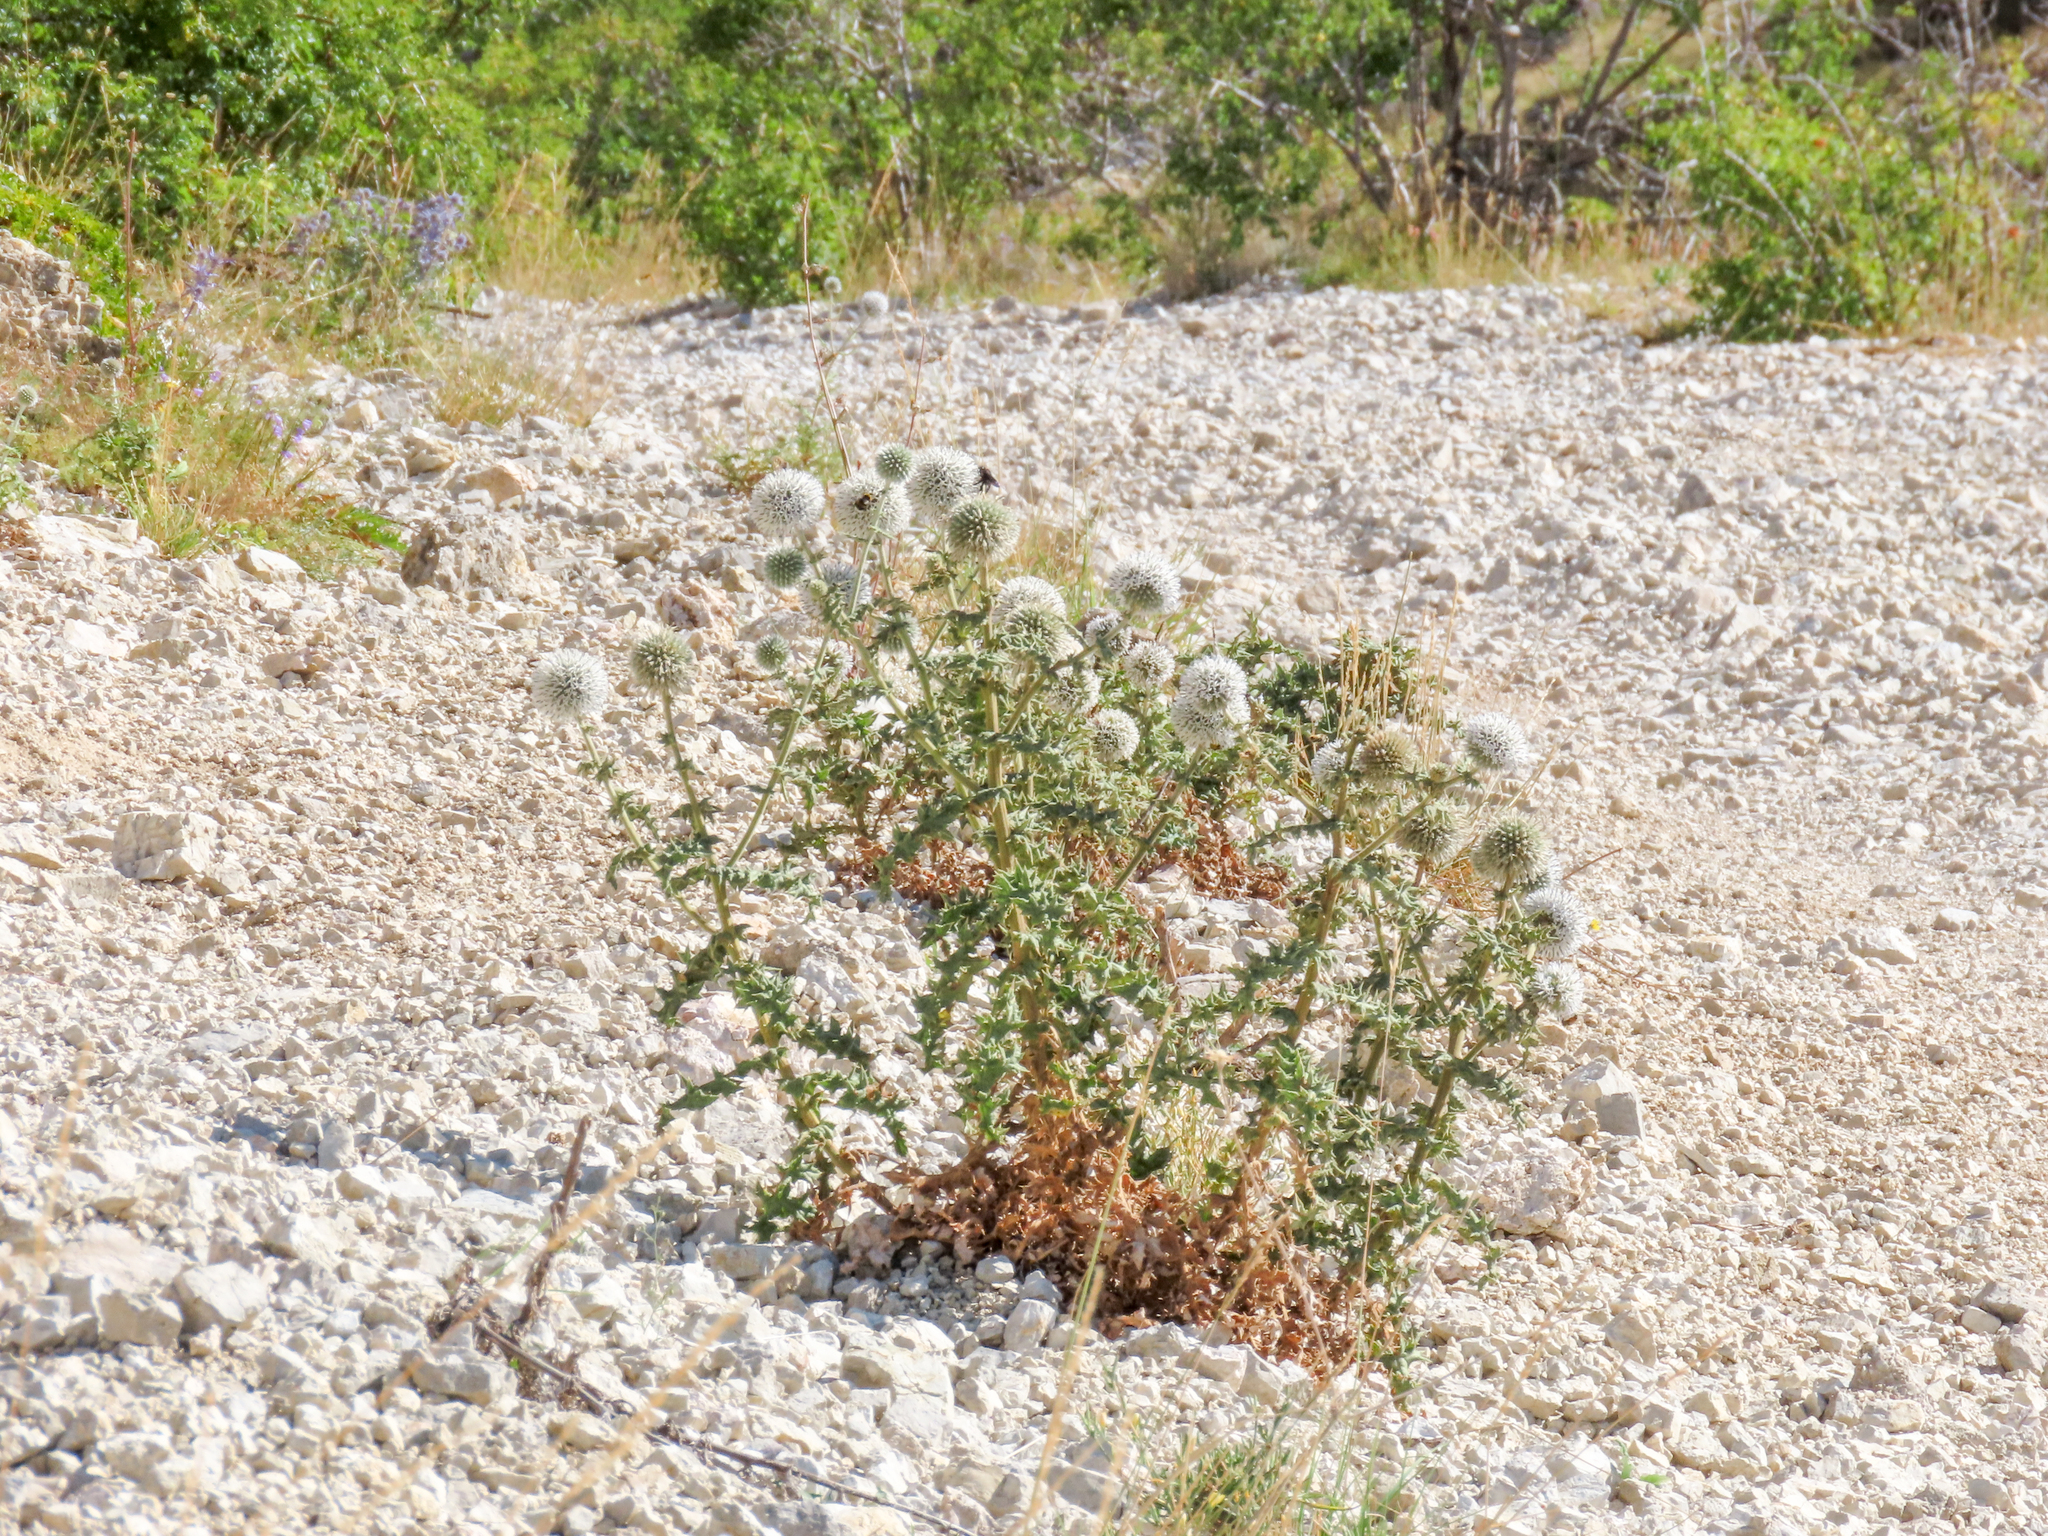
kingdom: Plantae
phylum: Tracheophyta
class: Magnoliopsida
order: Asterales
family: Asteraceae
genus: Echinops
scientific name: Echinops sphaerocephalus
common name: Glandular globe-thistle
